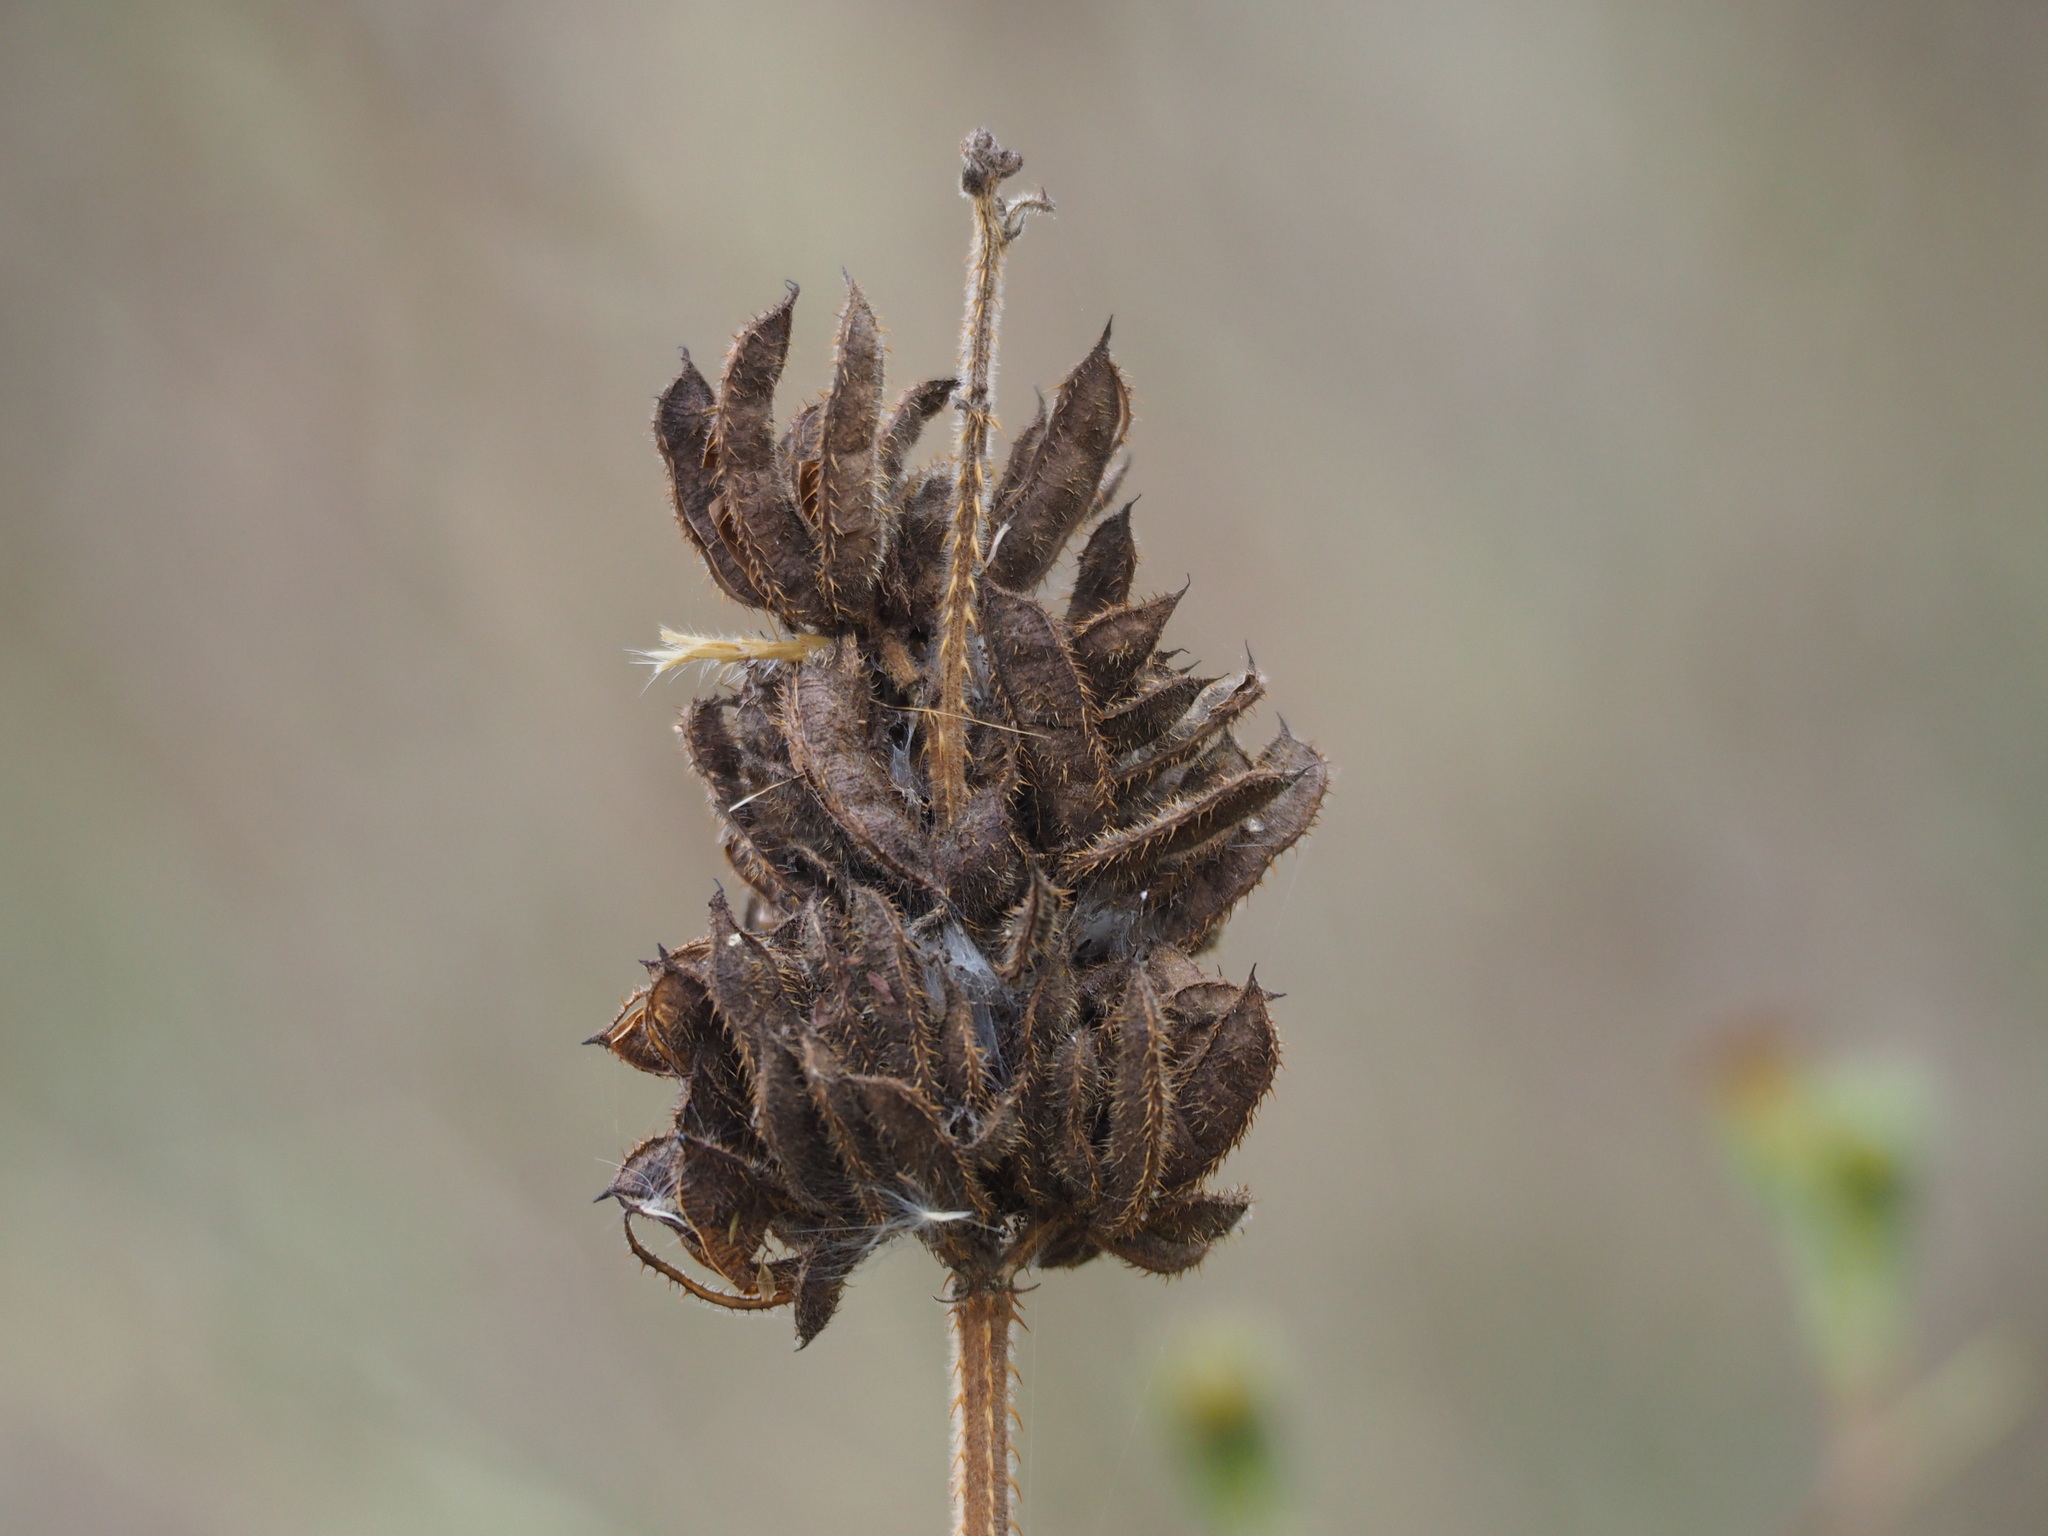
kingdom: Plantae
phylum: Tracheophyta
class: Magnoliopsida
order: Fabales
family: Fabaceae
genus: Mimosa
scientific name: Mimosa diplotricha
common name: Giant sensitive-plant
